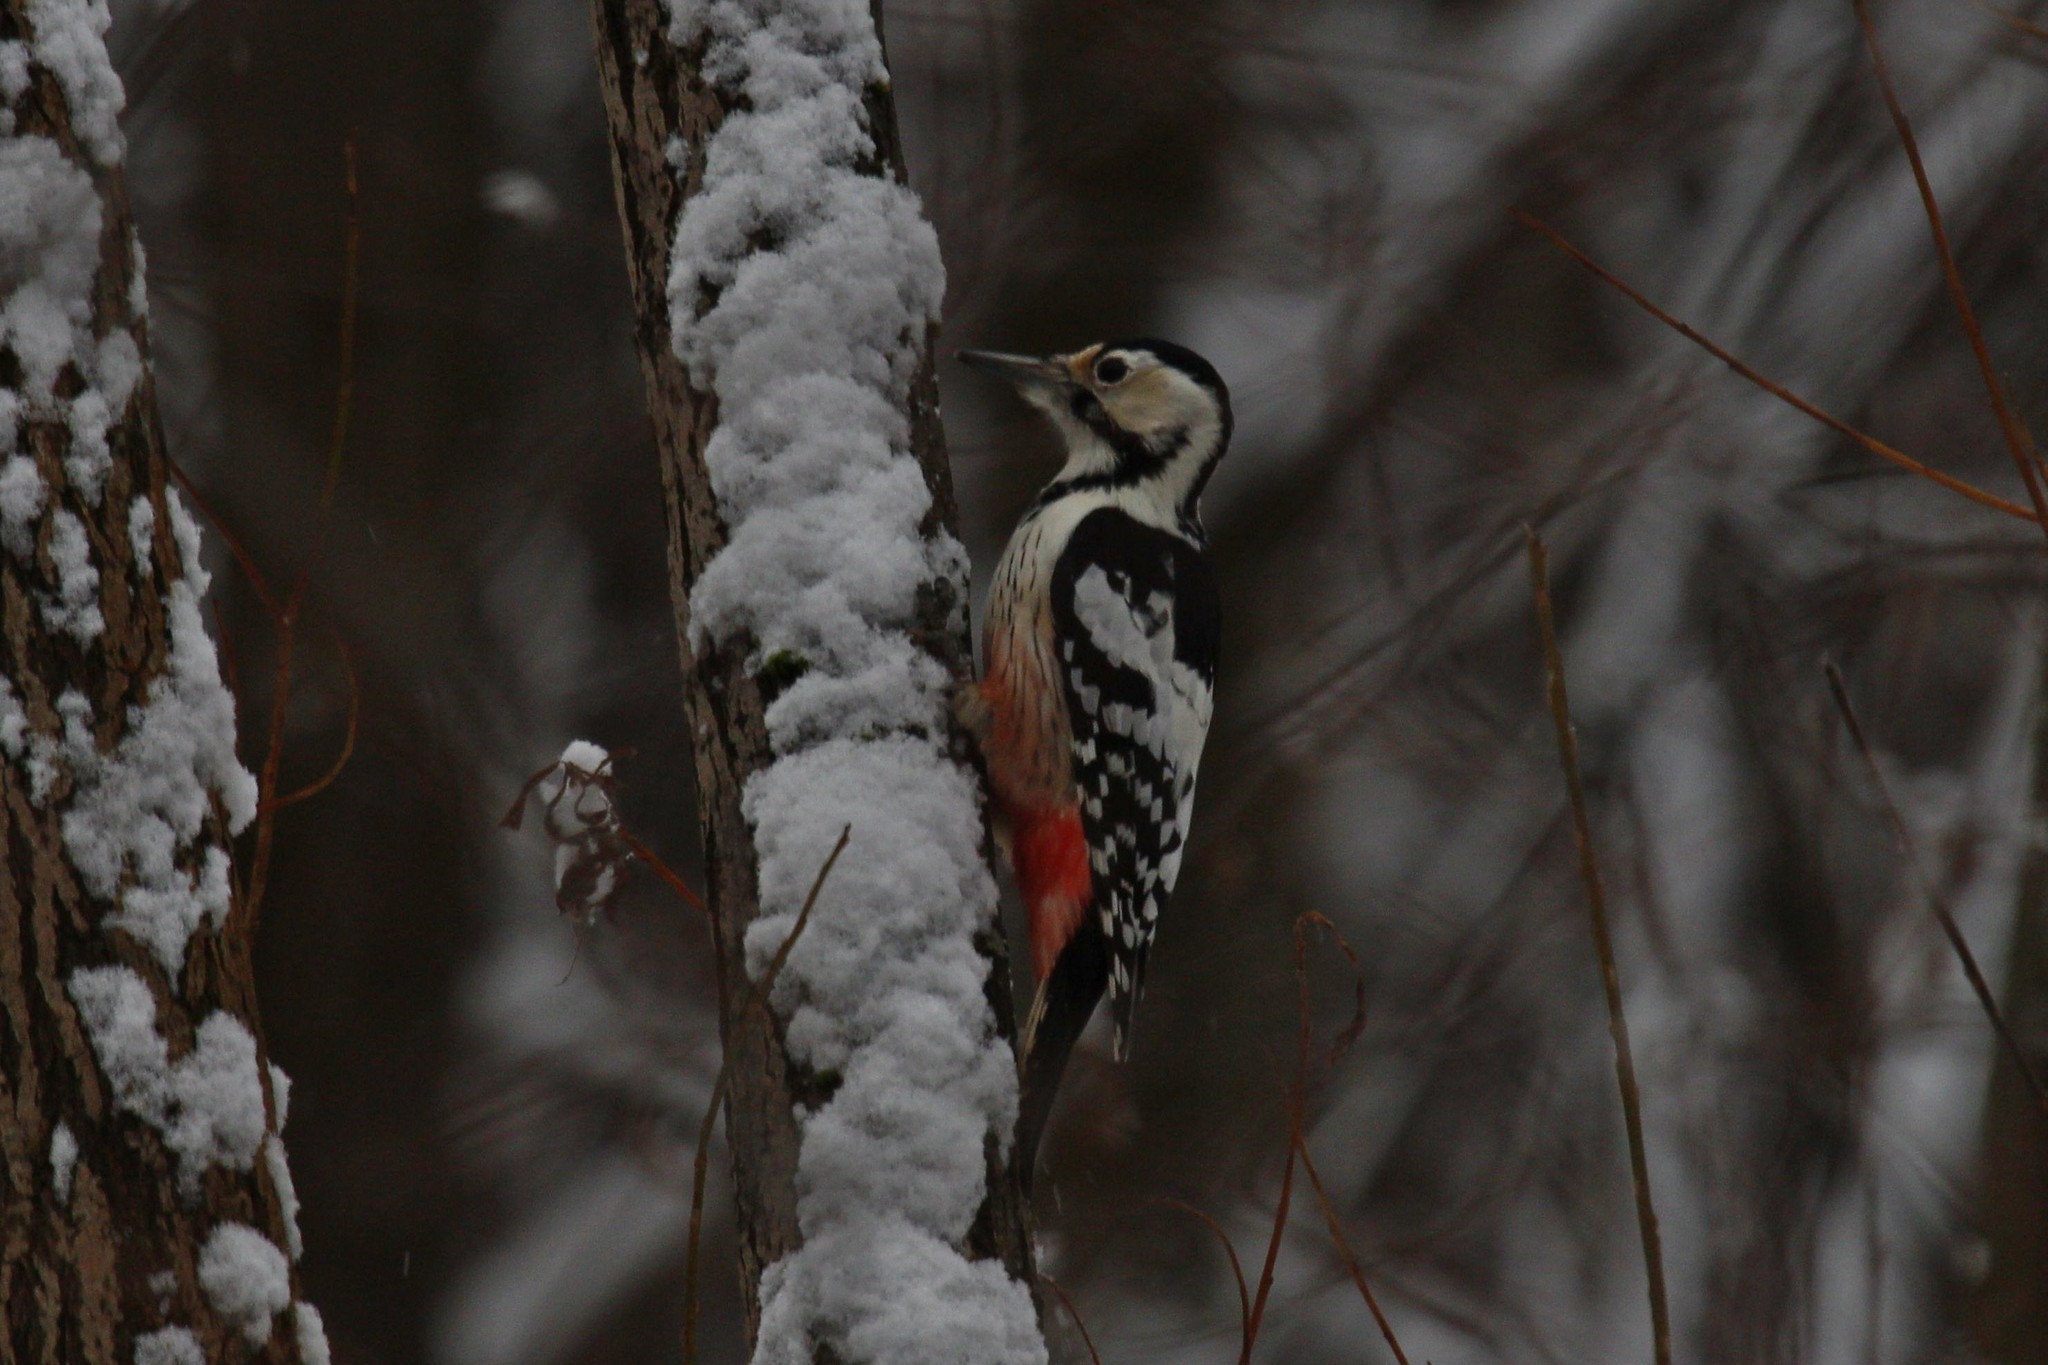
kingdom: Animalia
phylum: Chordata
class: Aves
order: Piciformes
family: Picidae
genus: Dendrocopos
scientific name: Dendrocopos leucotos
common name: White-backed woodpecker
